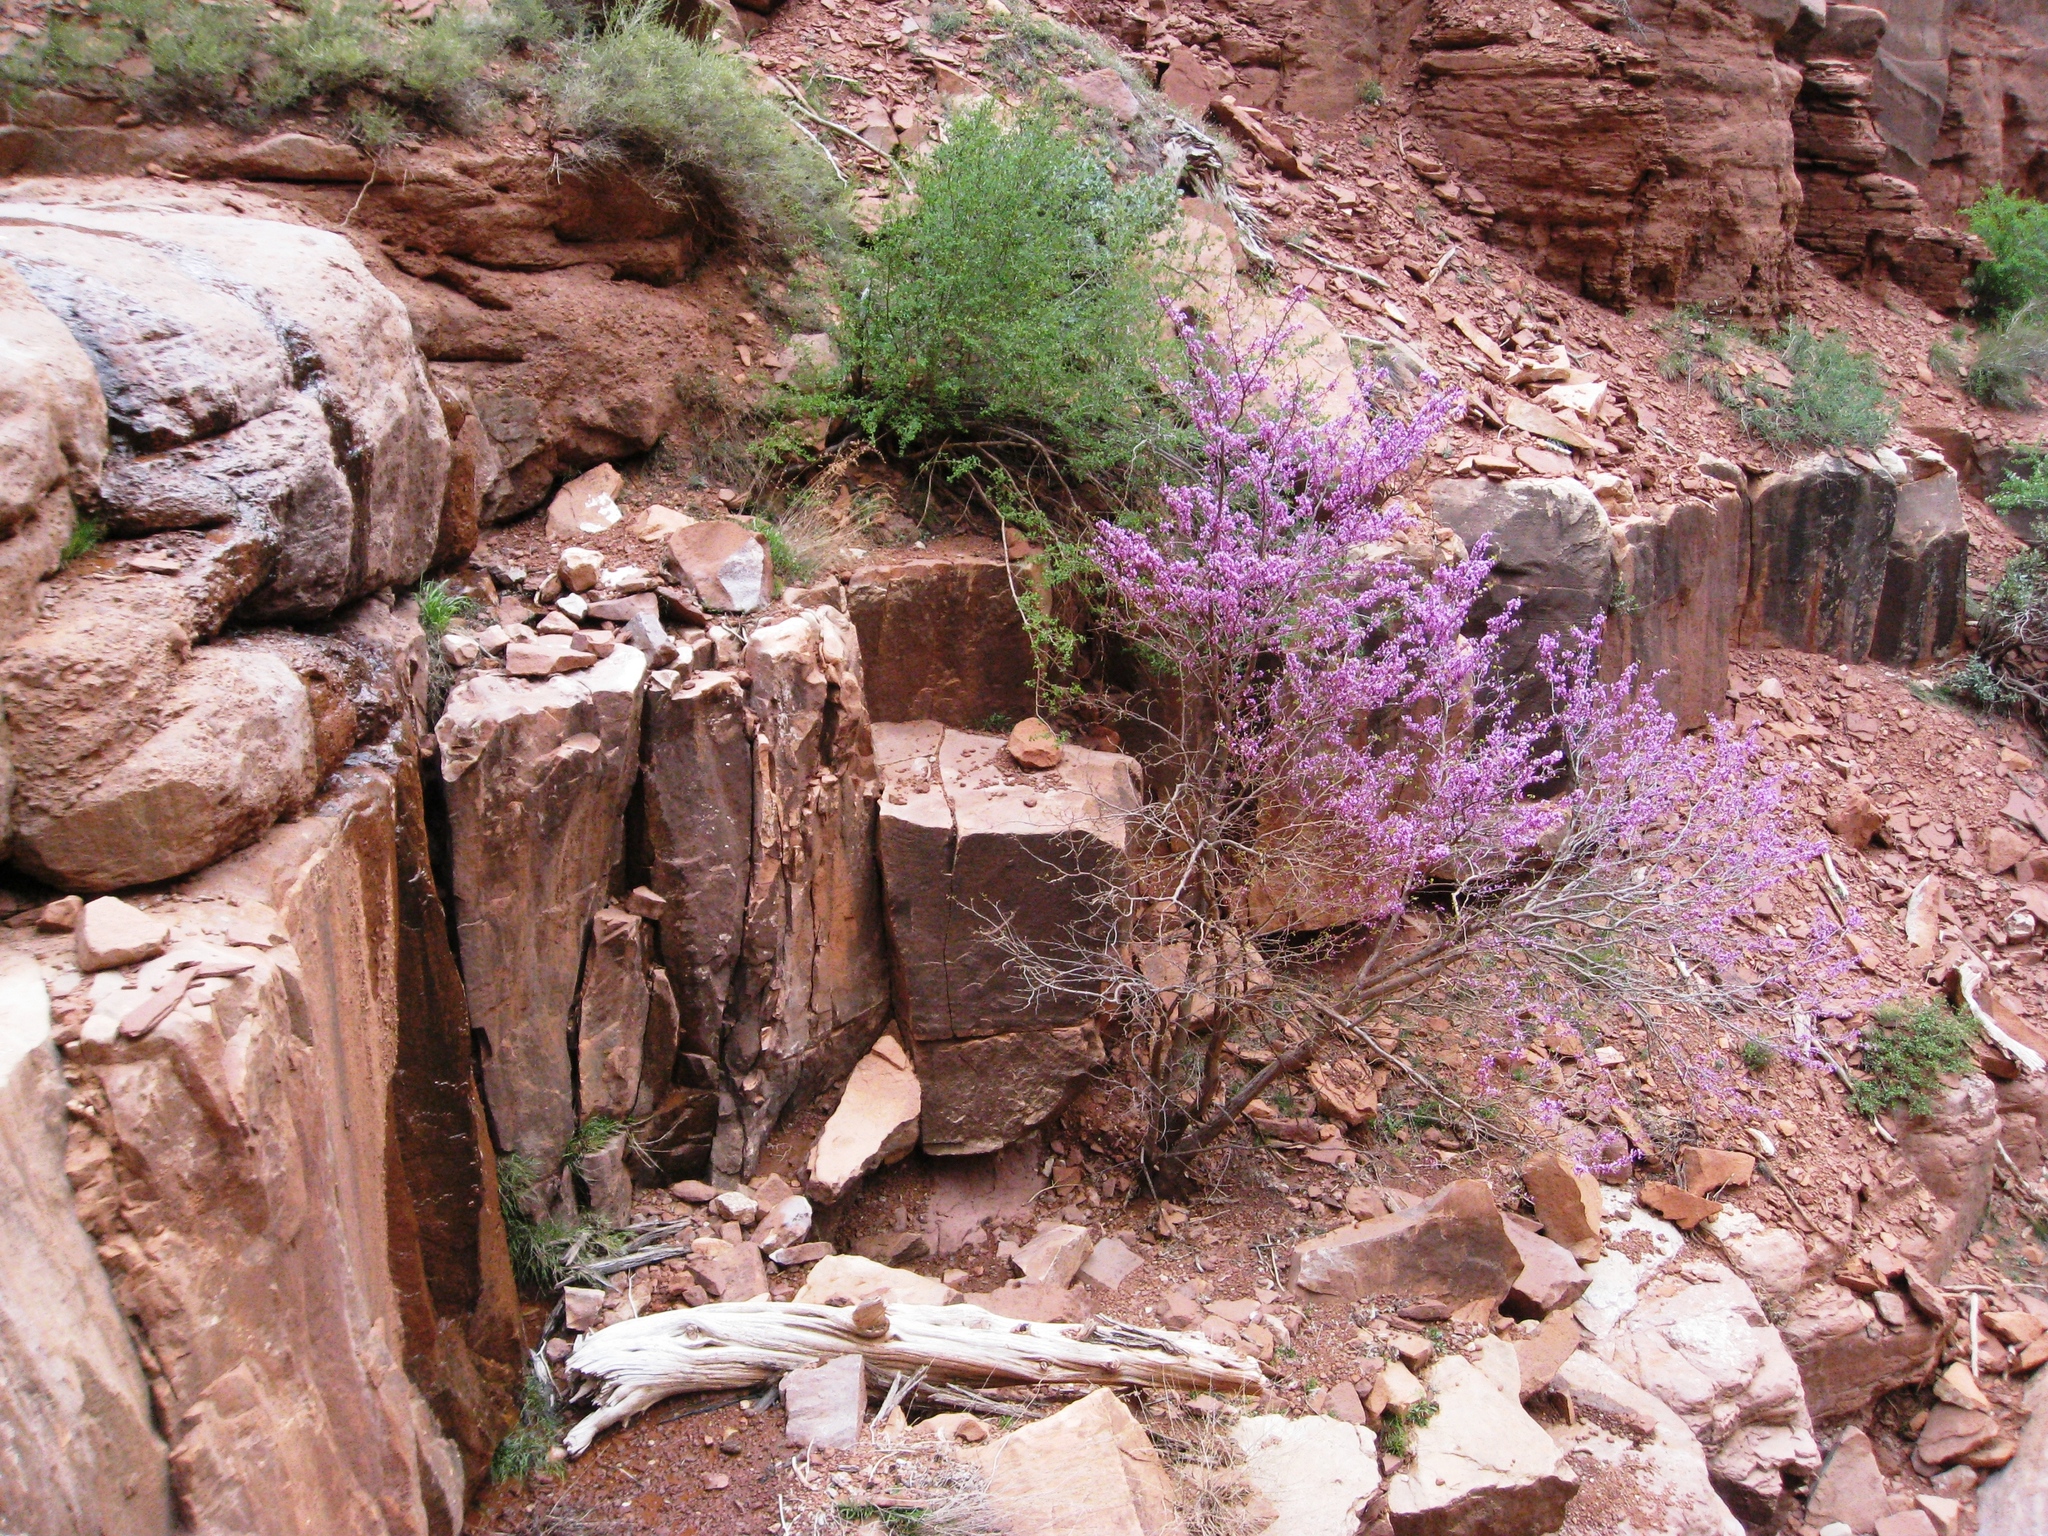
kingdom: Plantae
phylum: Tracheophyta
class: Magnoliopsida
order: Fabales
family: Fabaceae
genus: Cercis
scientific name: Cercis occidentalis
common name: California redbud
